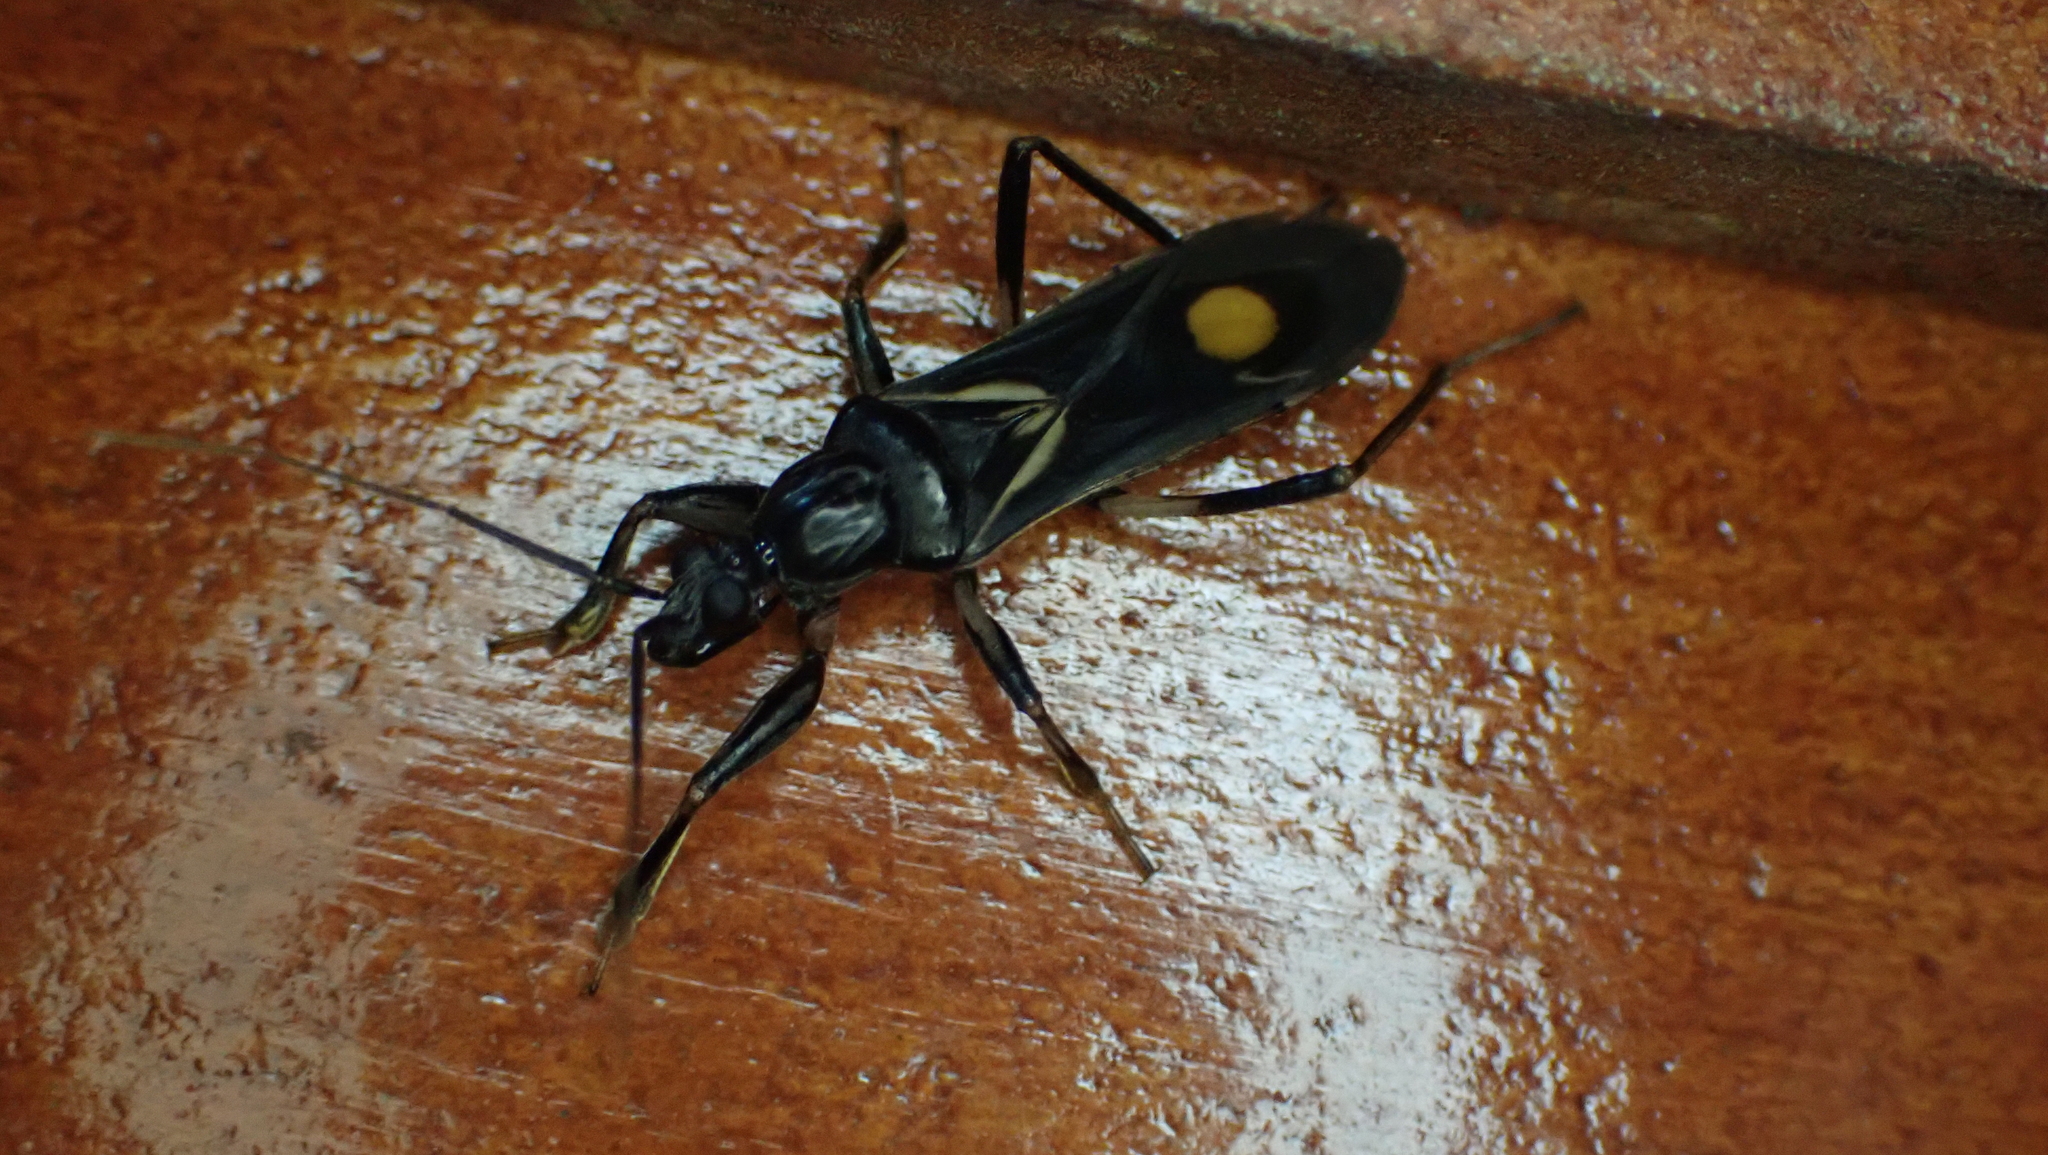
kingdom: Animalia
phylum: Arthropoda
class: Insecta
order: Hemiptera
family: Reduviidae
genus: Rasahus
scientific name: Rasahus hamatus
